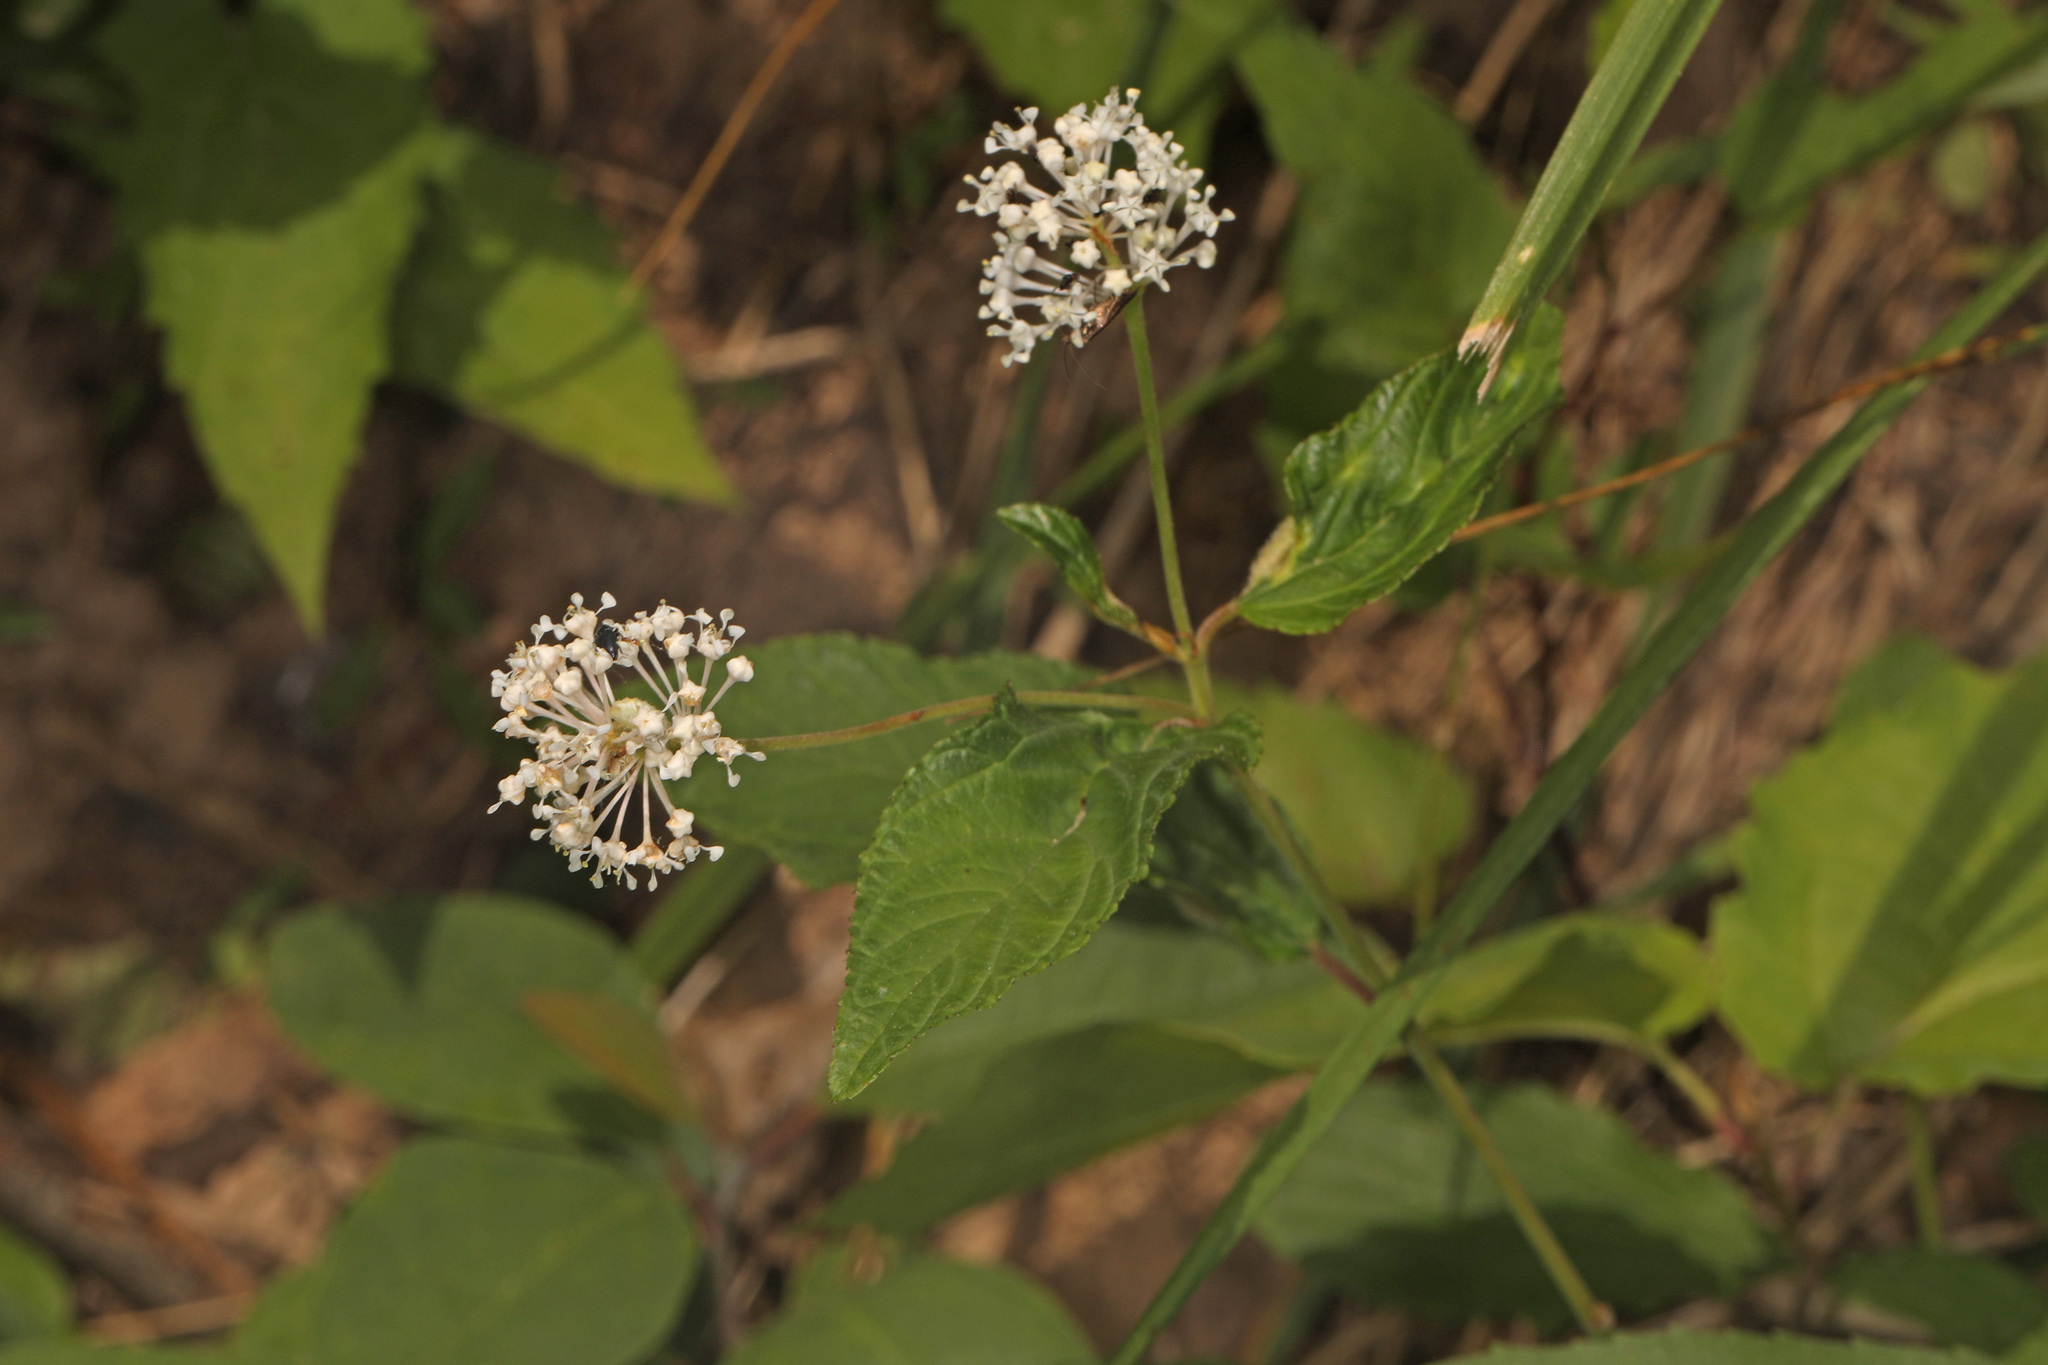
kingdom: Plantae
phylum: Tracheophyta
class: Magnoliopsida
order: Rosales
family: Rhamnaceae
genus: Ceanothus
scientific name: Ceanothus americanus
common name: Redroot
